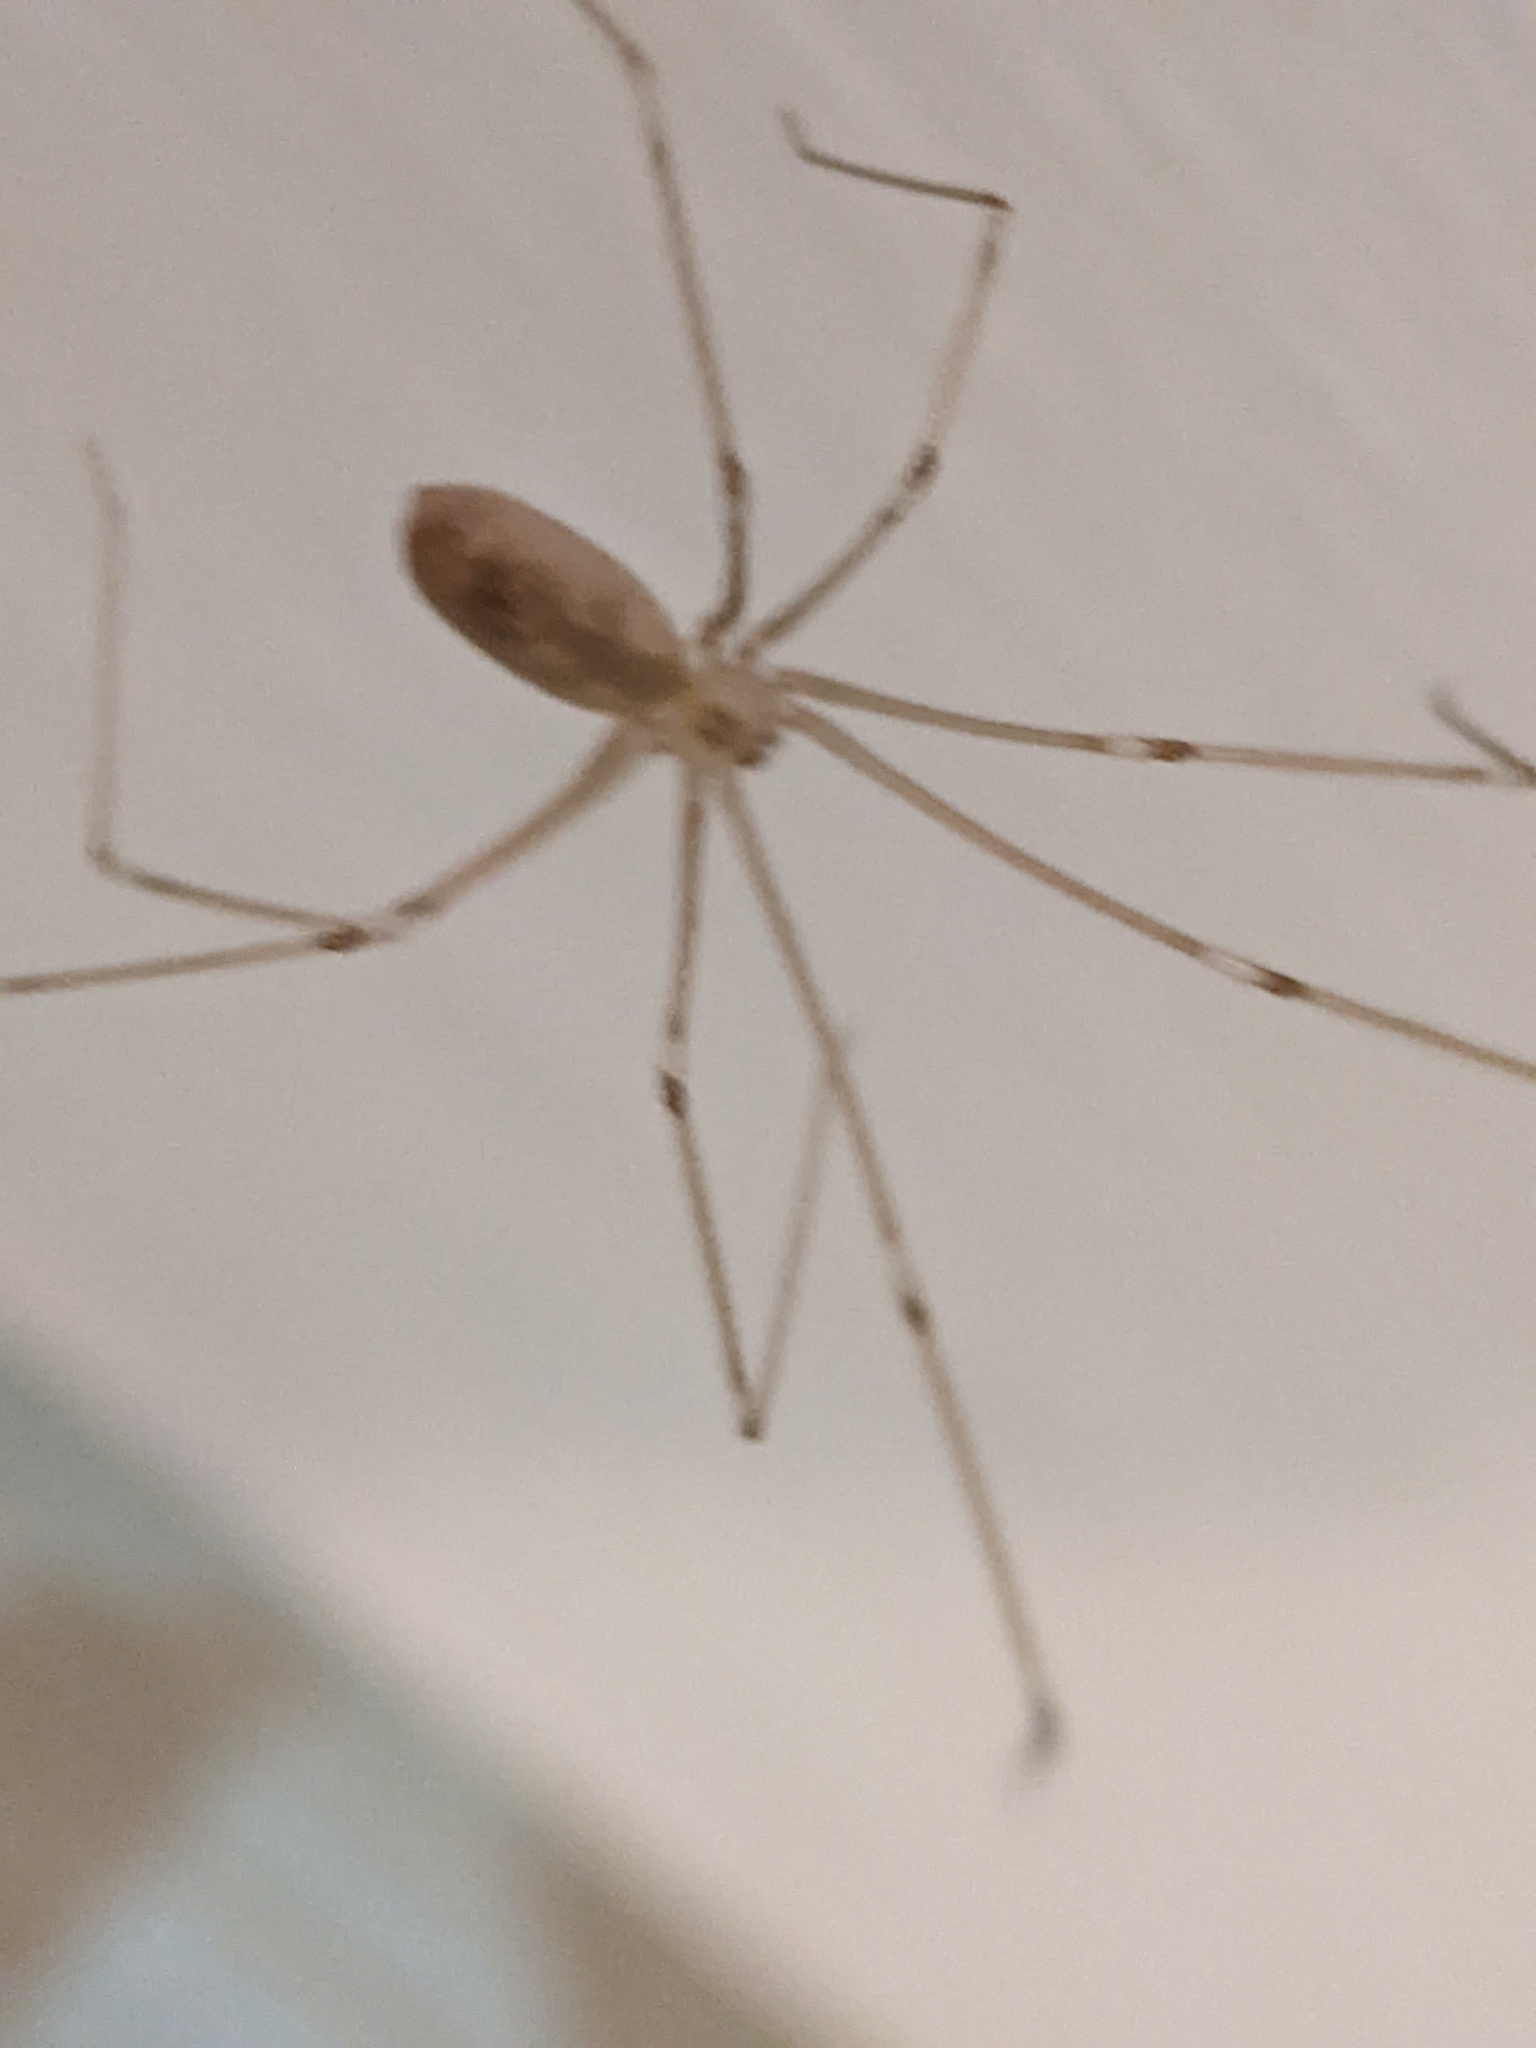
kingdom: Animalia
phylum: Arthropoda
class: Arachnida
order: Araneae
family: Pholcidae
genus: Pholcus
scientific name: Pholcus phalangioides
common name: Longbodied cellar spider
